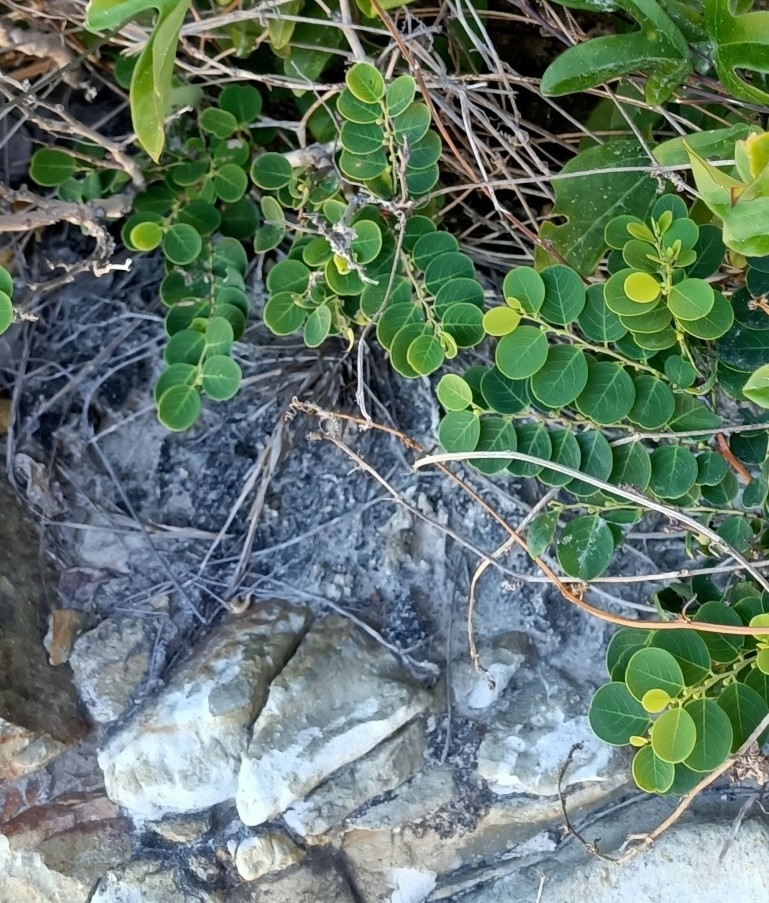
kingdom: Plantae
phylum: Tracheophyta
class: Magnoliopsida
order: Malpighiales
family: Phyllanthaceae
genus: Breynia
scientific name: Breynia oblongifolia
